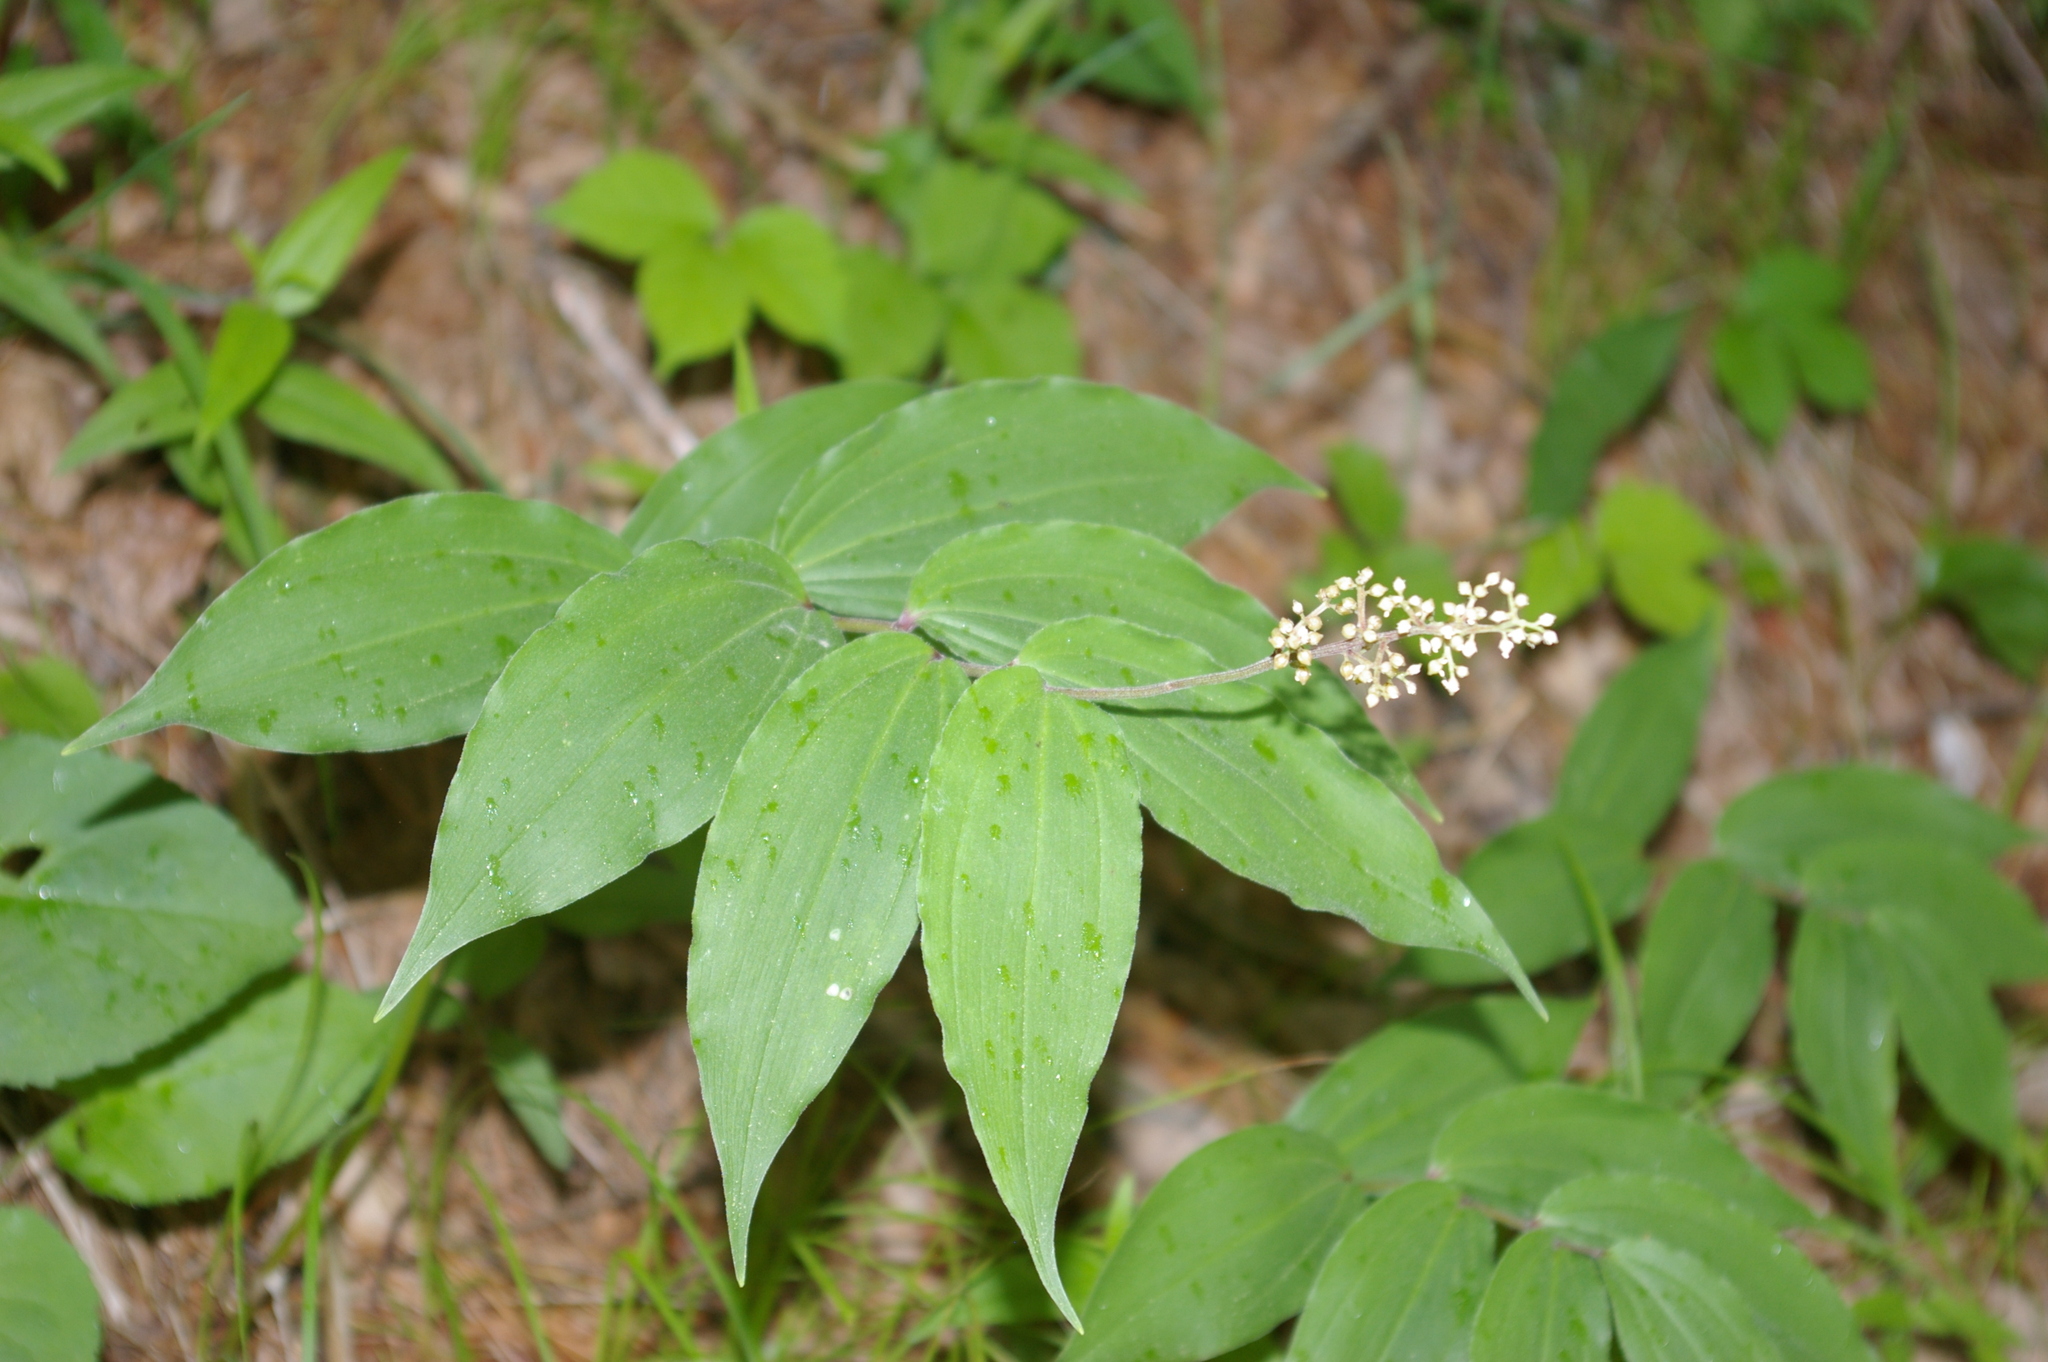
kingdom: Plantae
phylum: Tracheophyta
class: Liliopsida
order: Asparagales
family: Asparagaceae
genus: Maianthemum
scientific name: Maianthemum racemosum
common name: False spikenard
